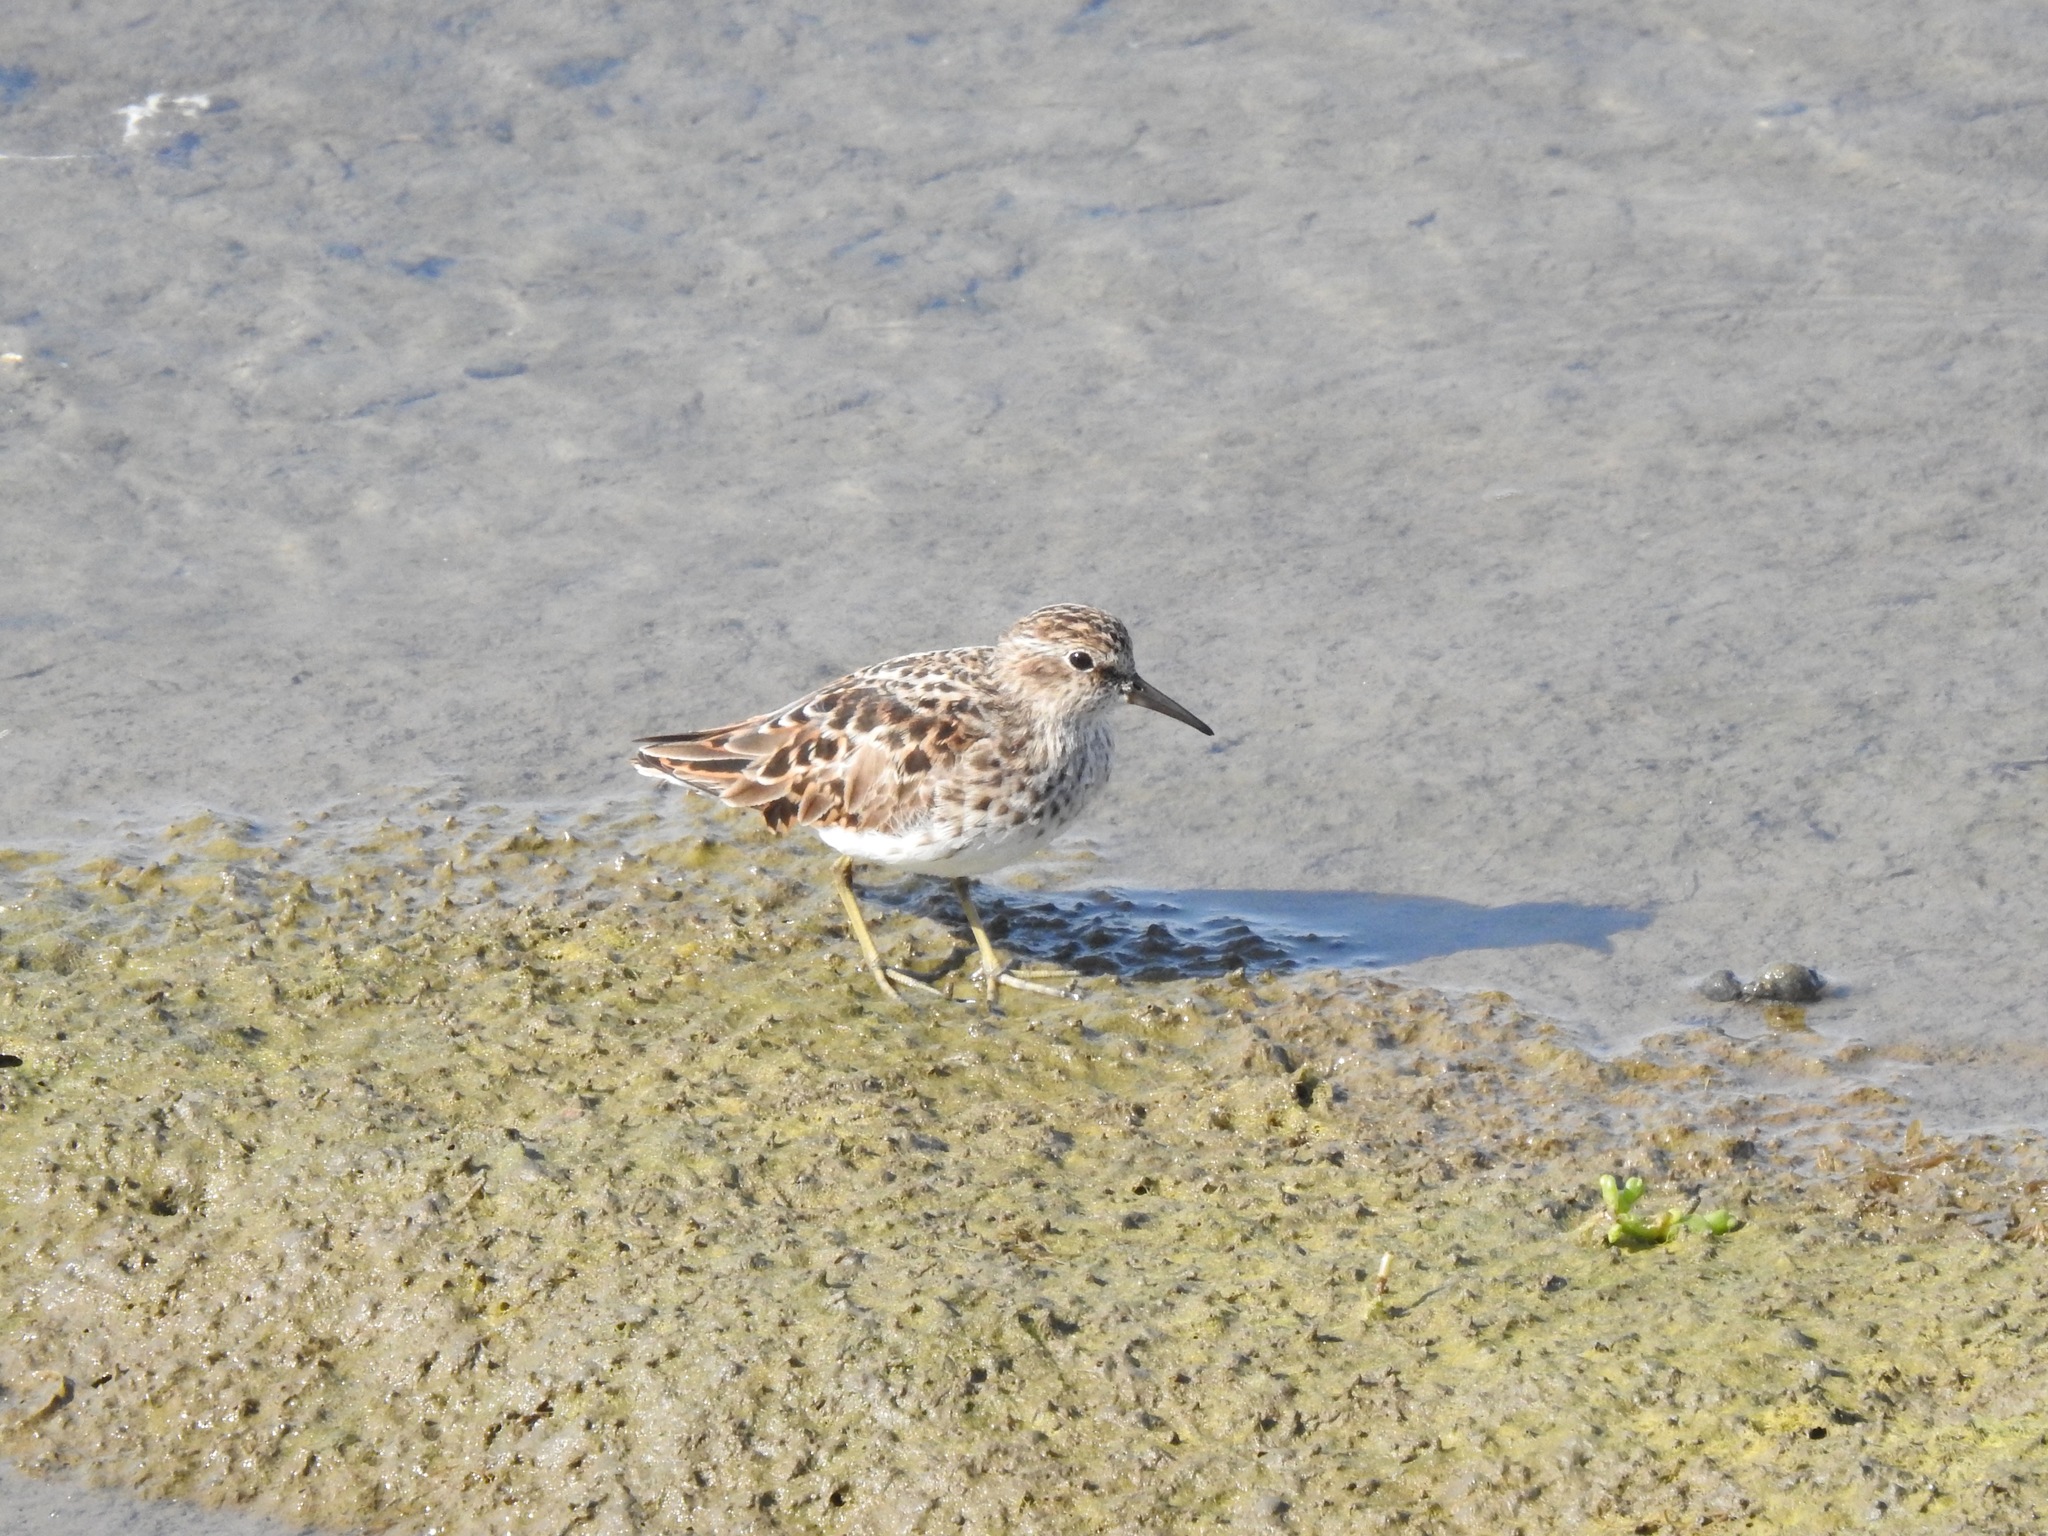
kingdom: Animalia
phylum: Chordata
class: Aves
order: Charadriiformes
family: Scolopacidae
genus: Calidris
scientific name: Calidris minutilla
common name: Least sandpiper
